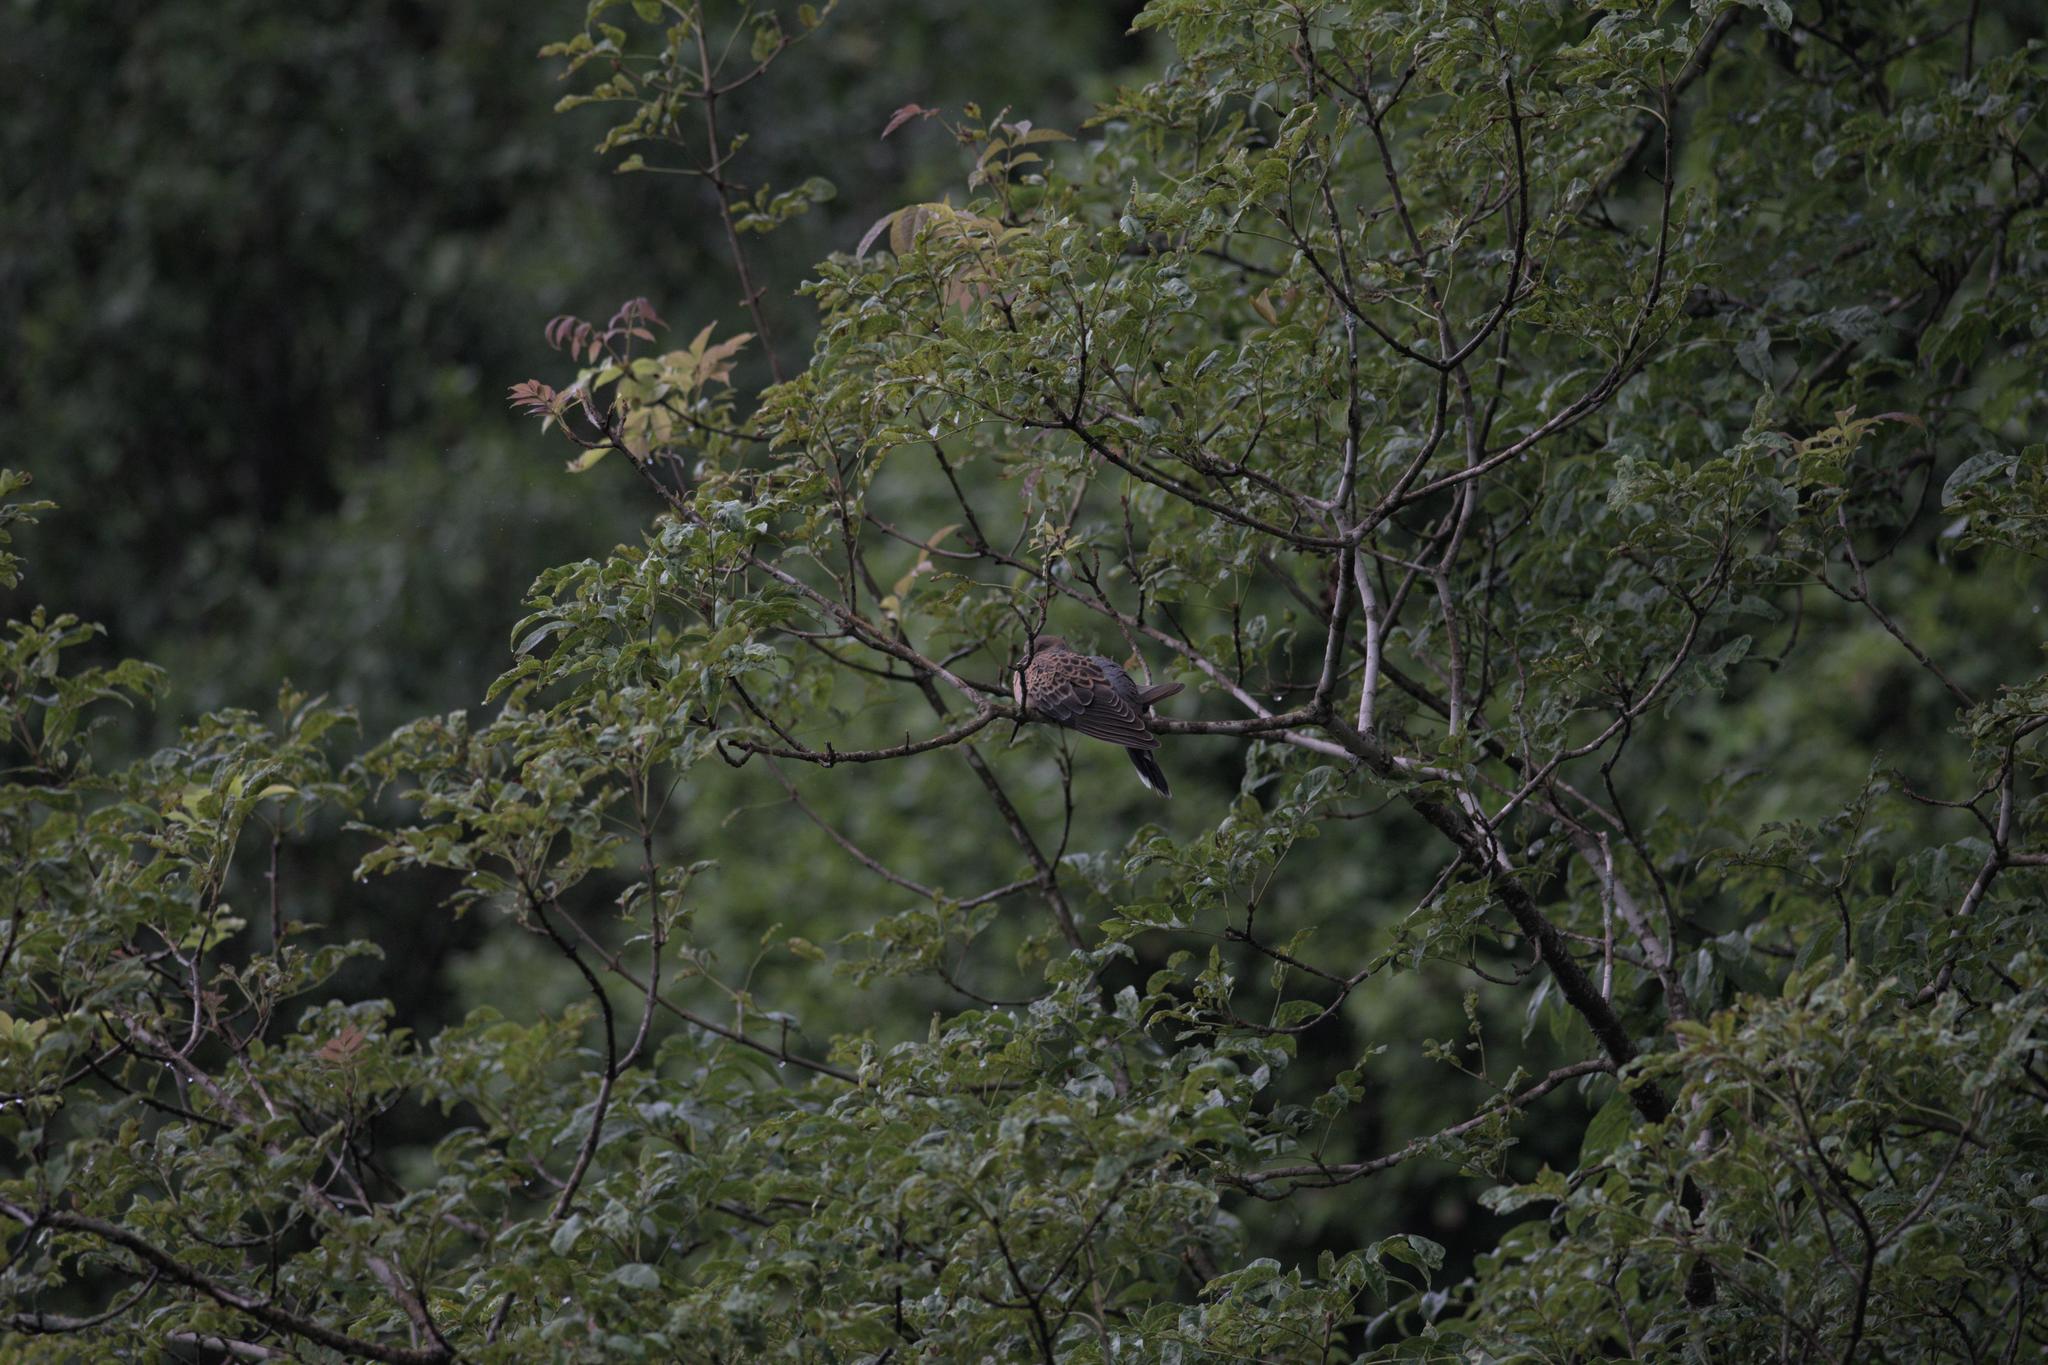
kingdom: Animalia
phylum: Chordata
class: Aves
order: Columbiformes
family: Columbidae
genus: Streptopelia
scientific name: Streptopelia orientalis
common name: Oriental turtle dove
